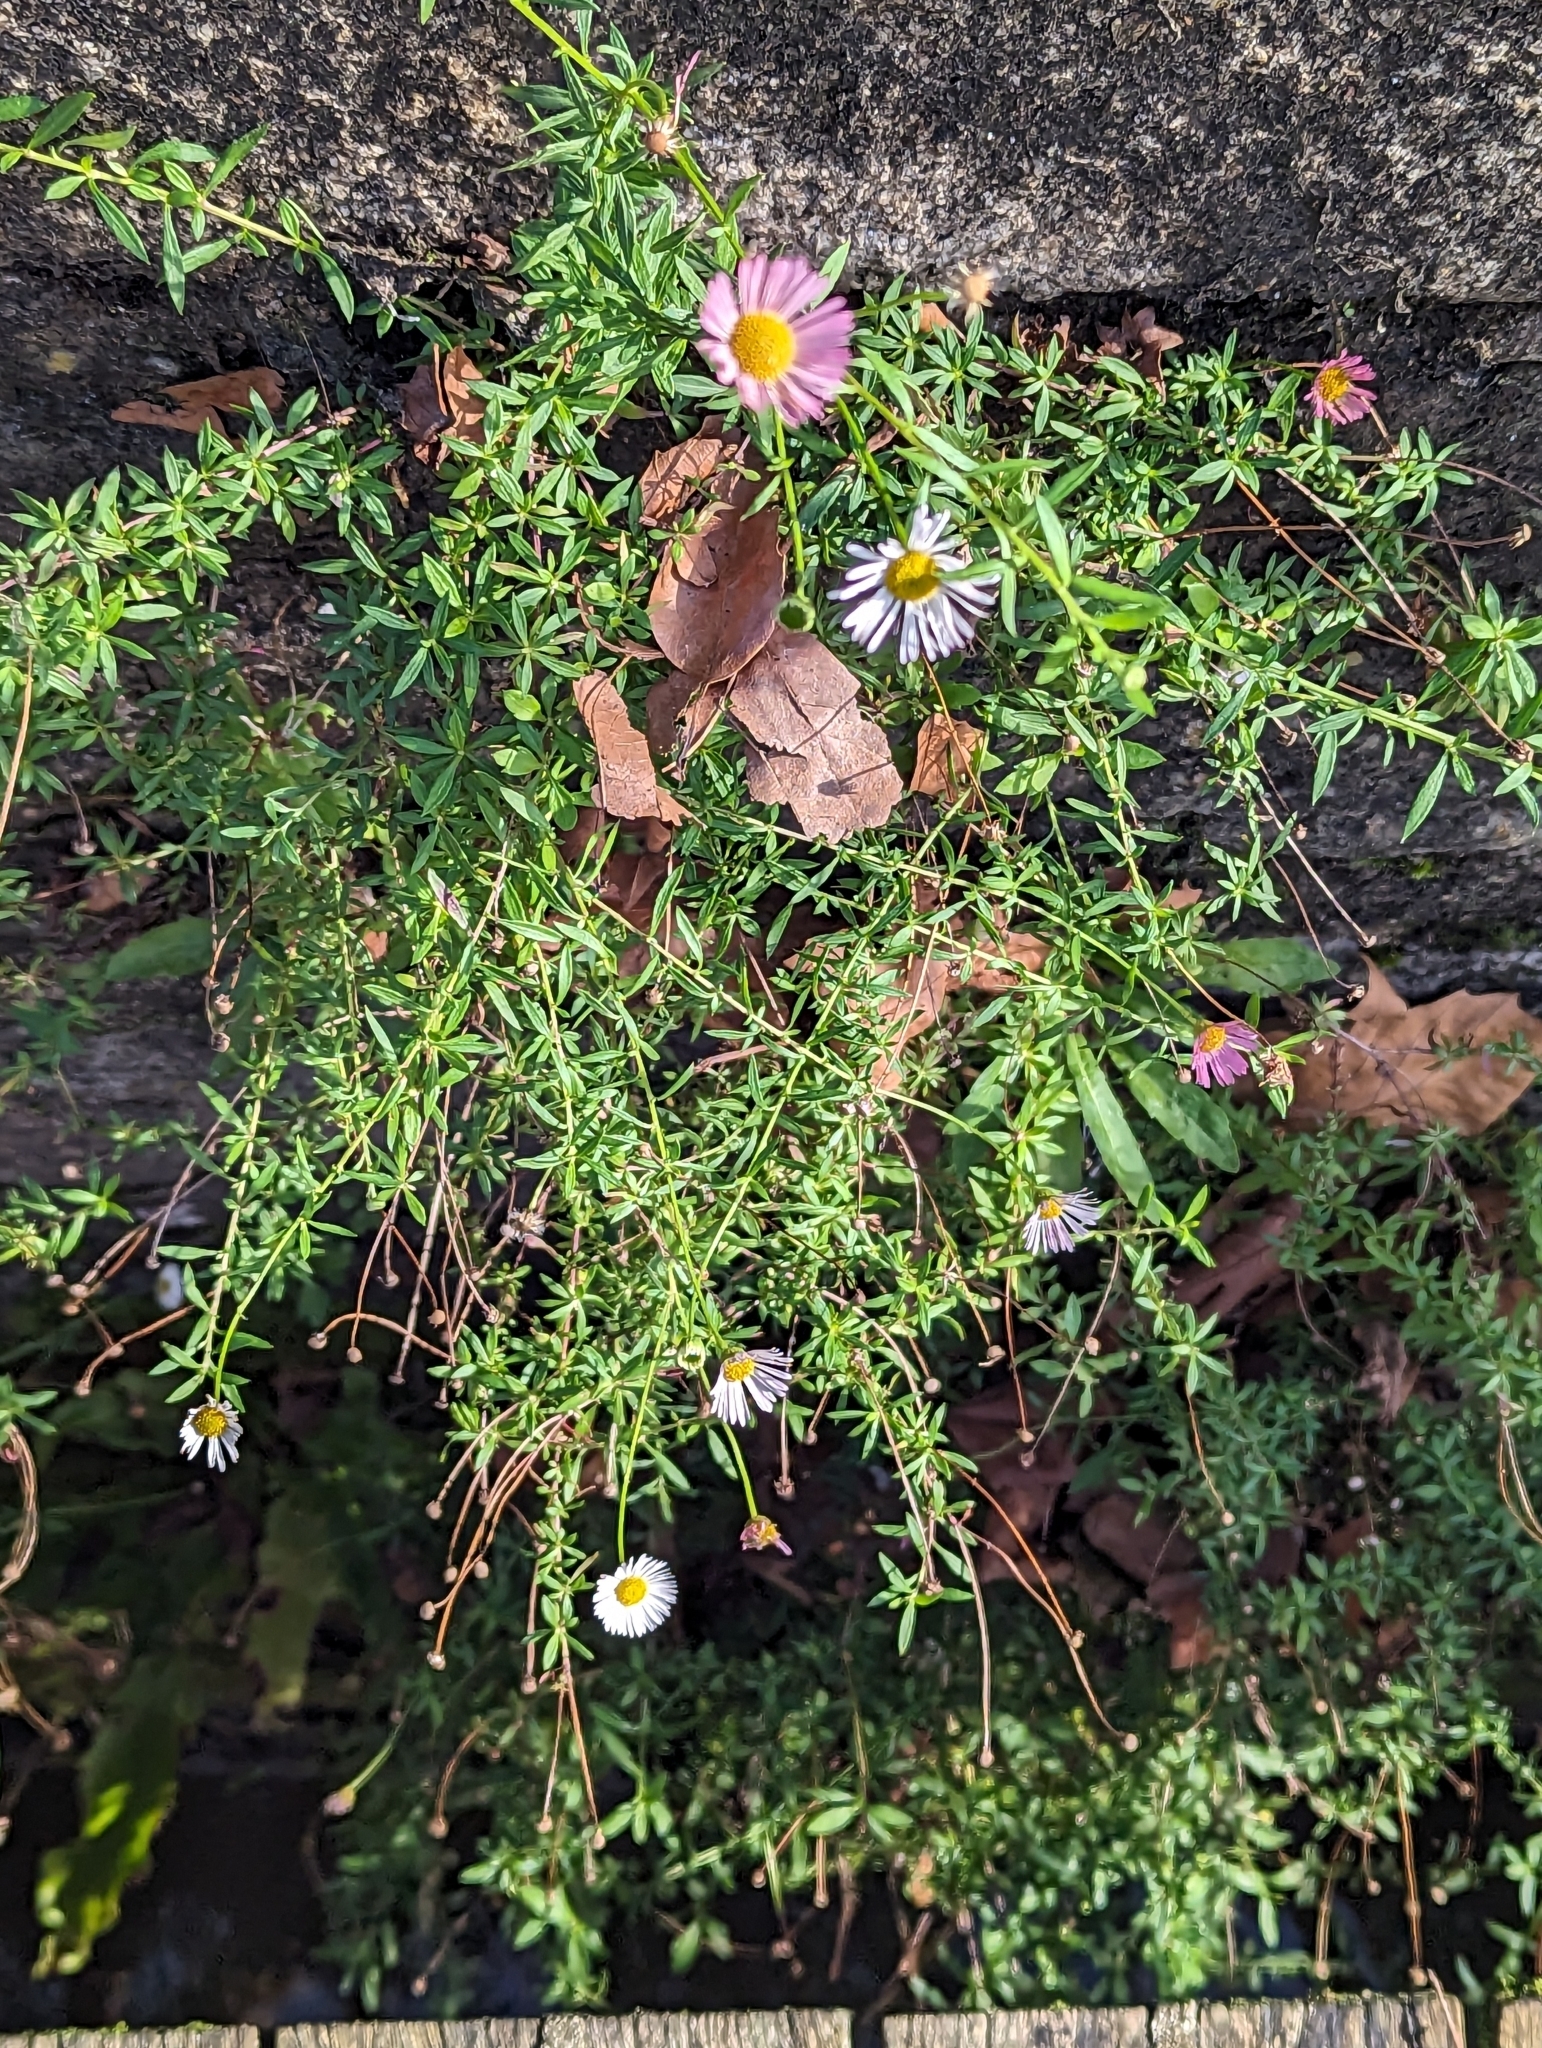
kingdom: Plantae
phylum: Tracheophyta
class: Magnoliopsida
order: Asterales
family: Asteraceae
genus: Erigeron
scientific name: Erigeron karvinskianus
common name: Mexican fleabane
